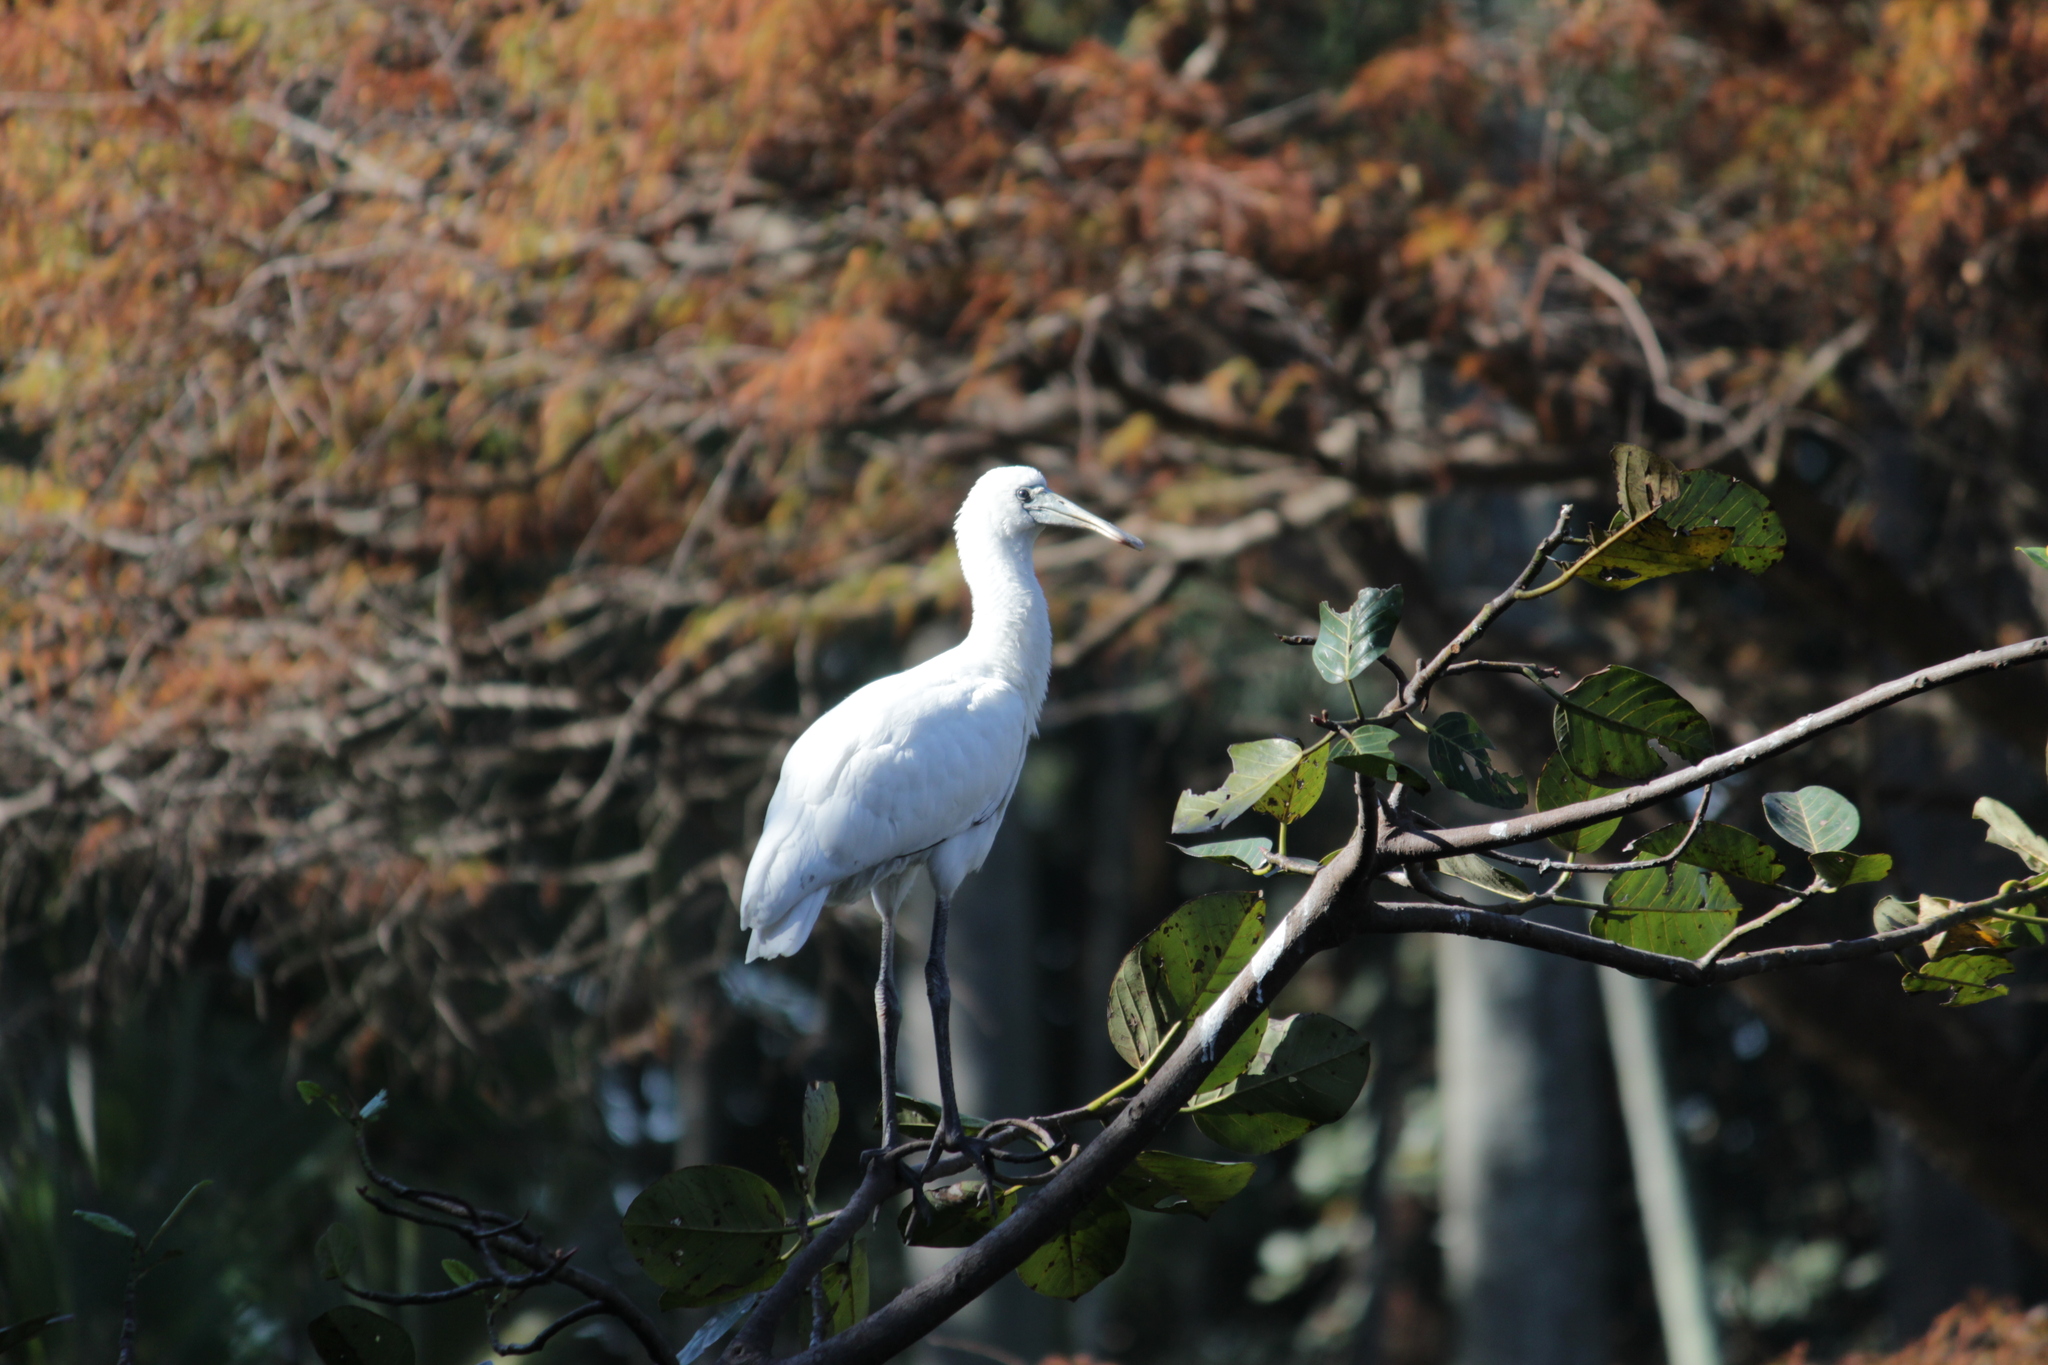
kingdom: Animalia
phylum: Chordata
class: Aves
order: Pelecaniformes
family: Threskiornithidae
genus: Platalea
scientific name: Platalea alba
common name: African spoonbill
